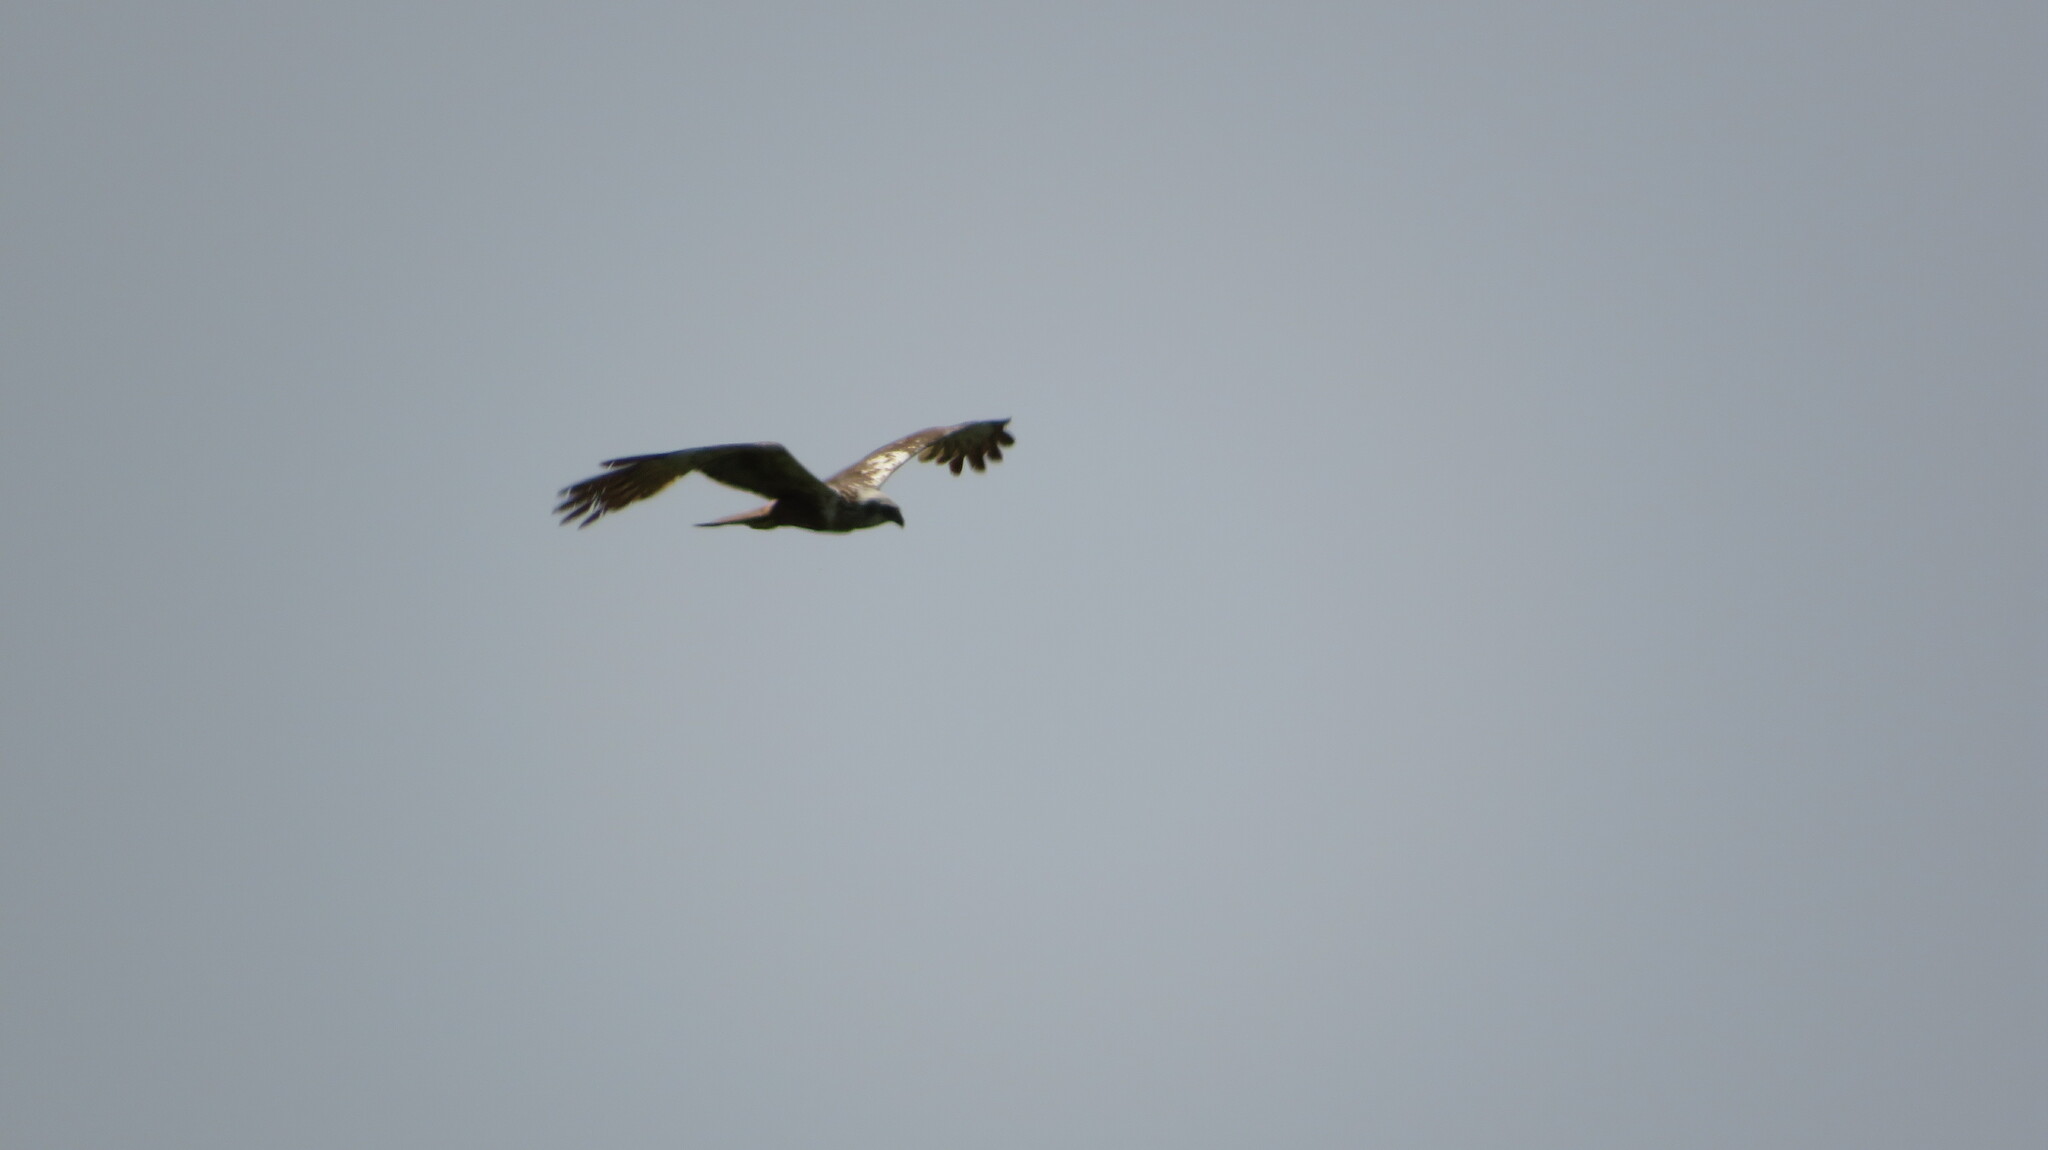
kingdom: Animalia
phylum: Chordata
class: Aves
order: Accipitriformes
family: Accipitridae
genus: Circus
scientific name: Circus aeruginosus
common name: Western marsh harrier
